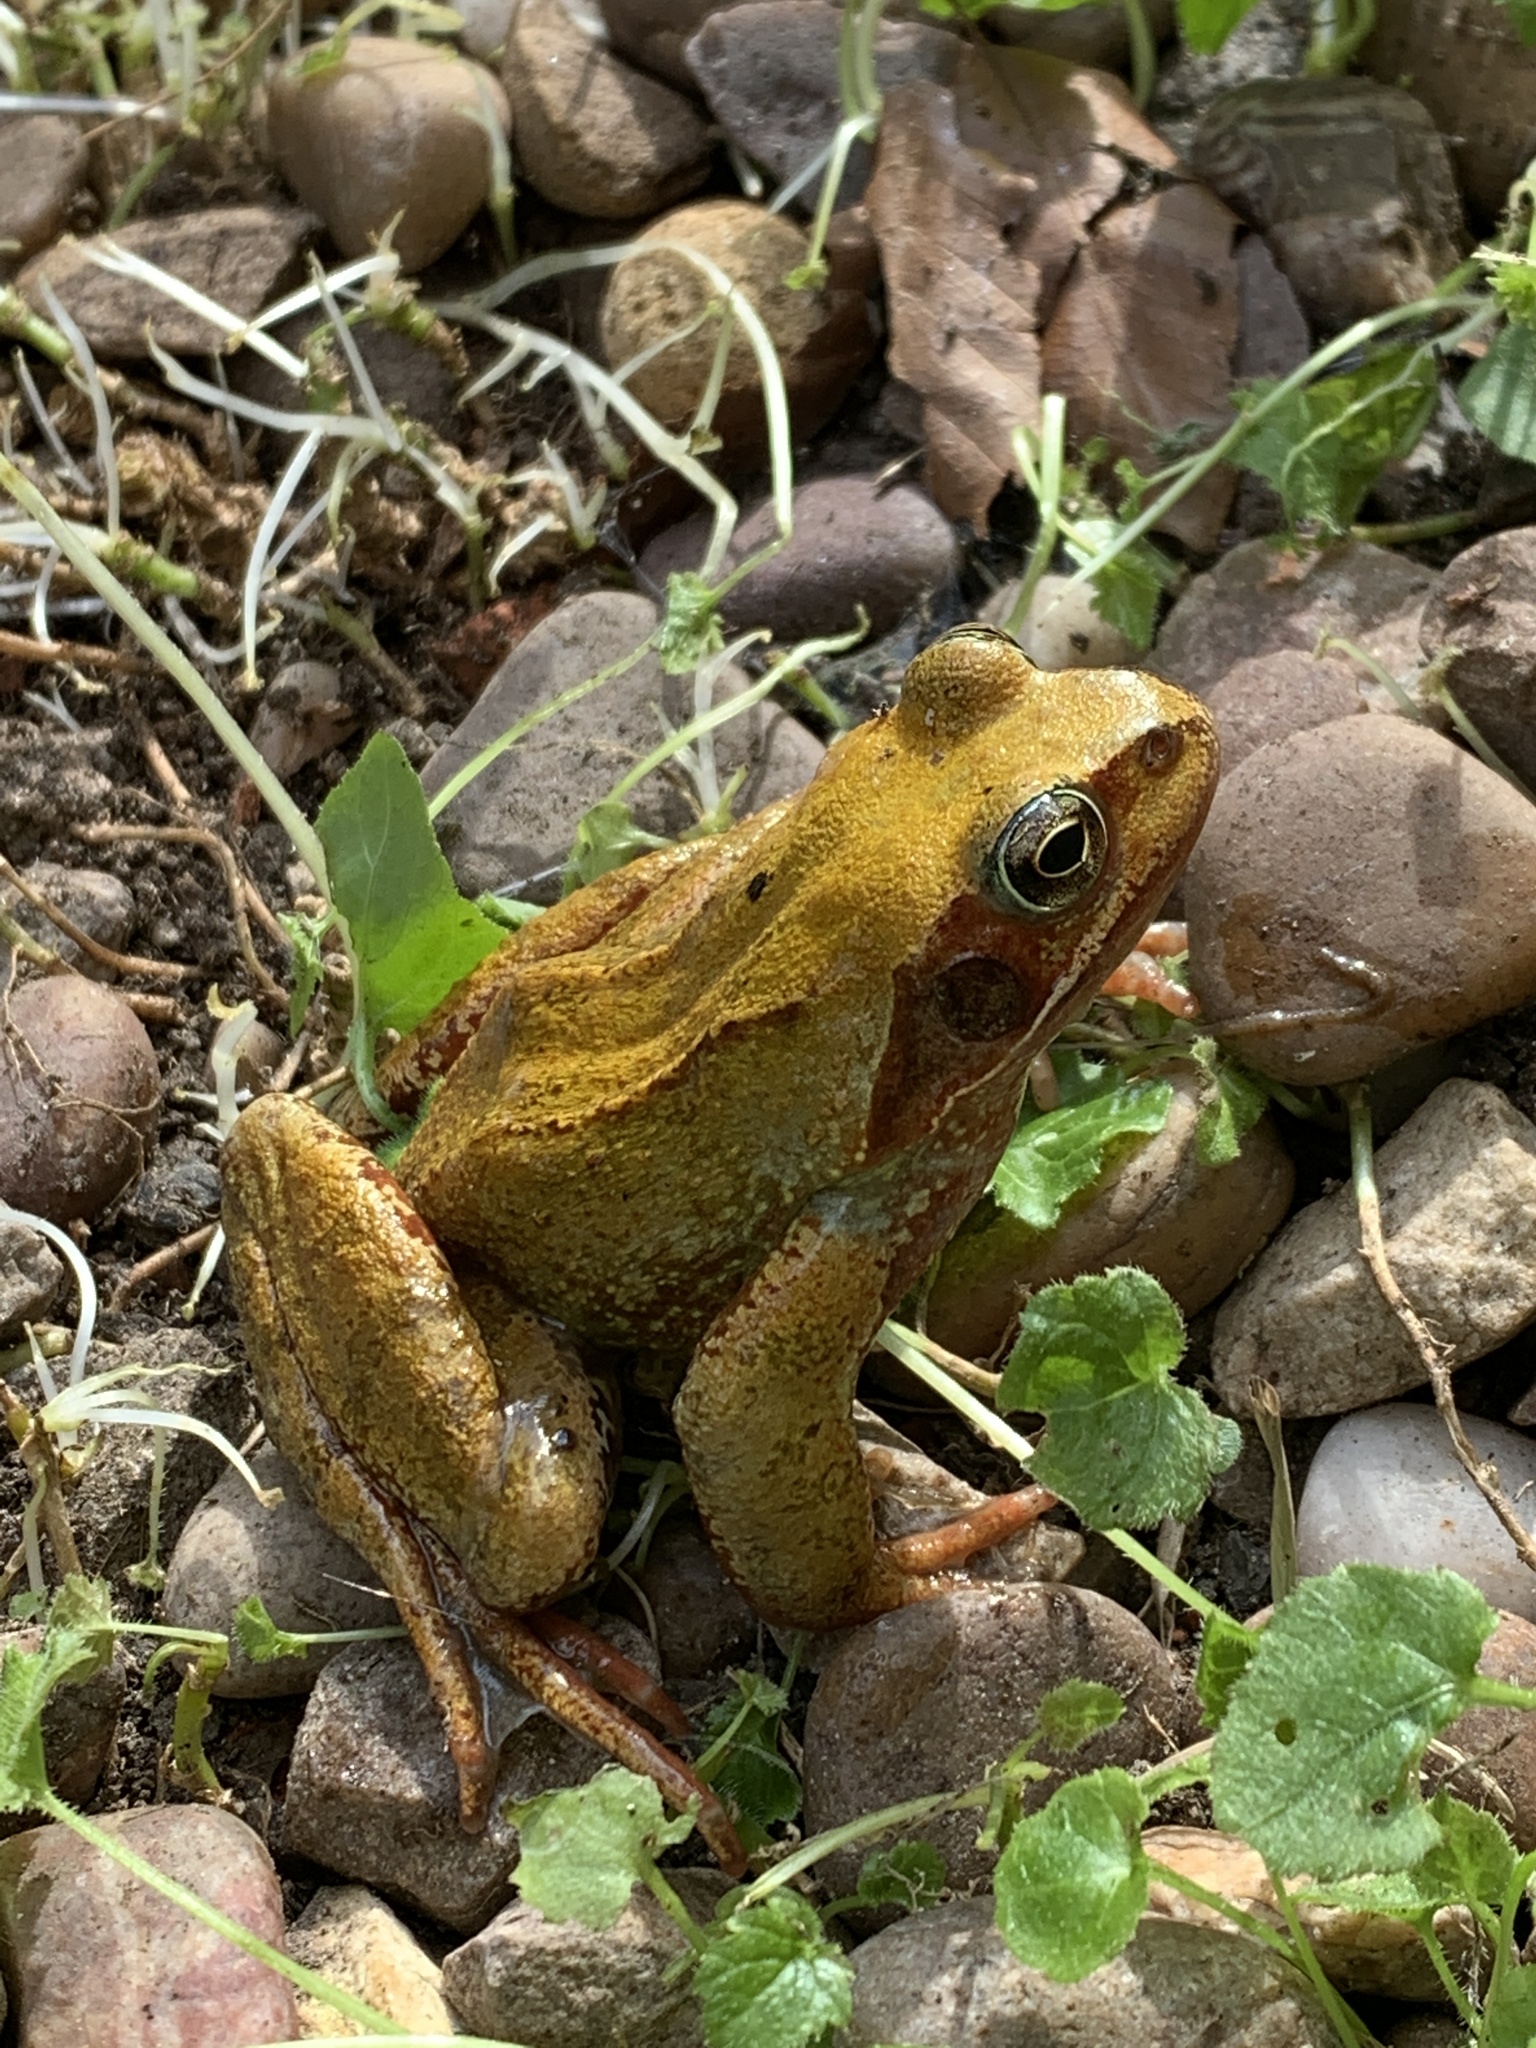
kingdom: Animalia
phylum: Chordata
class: Amphibia
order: Anura
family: Ranidae
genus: Rana
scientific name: Rana temporaria
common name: Common frog
